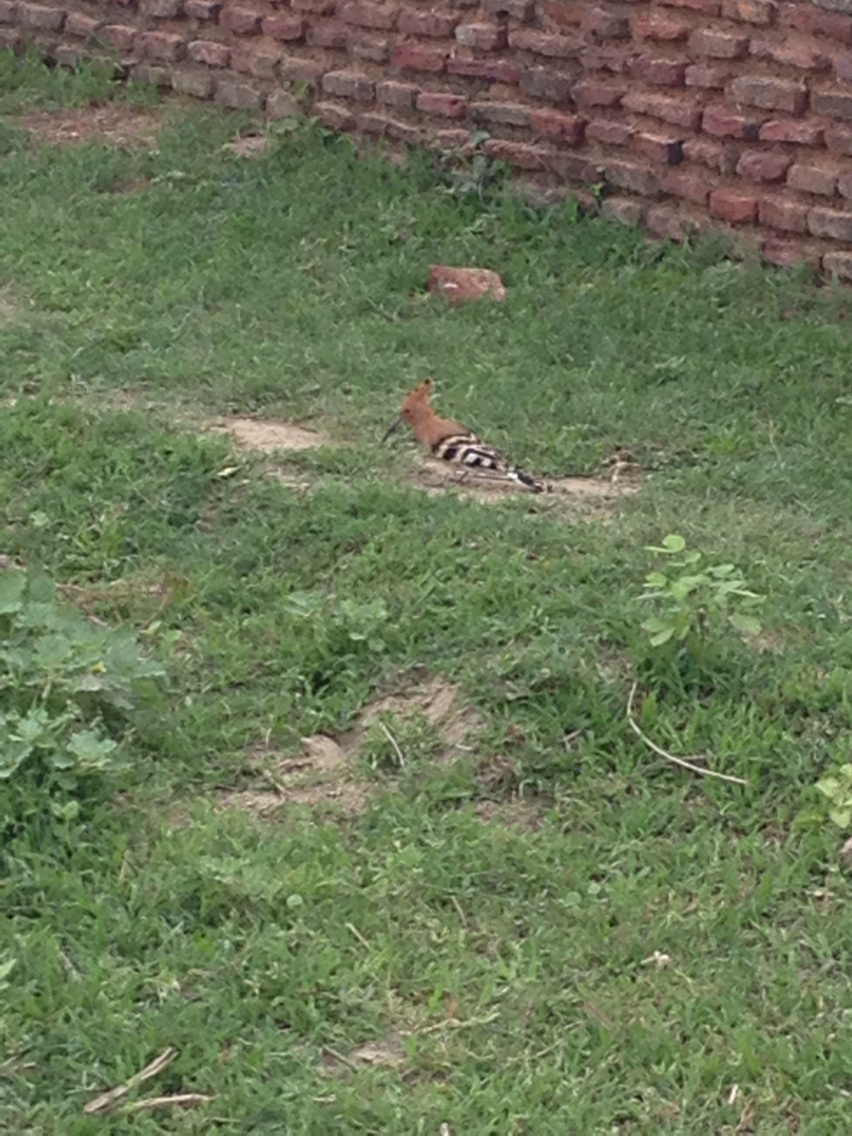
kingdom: Animalia
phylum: Chordata
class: Aves
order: Bucerotiformes
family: Upupidae
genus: Upupa
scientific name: Upupa epops
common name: Eurasian hoopoe
